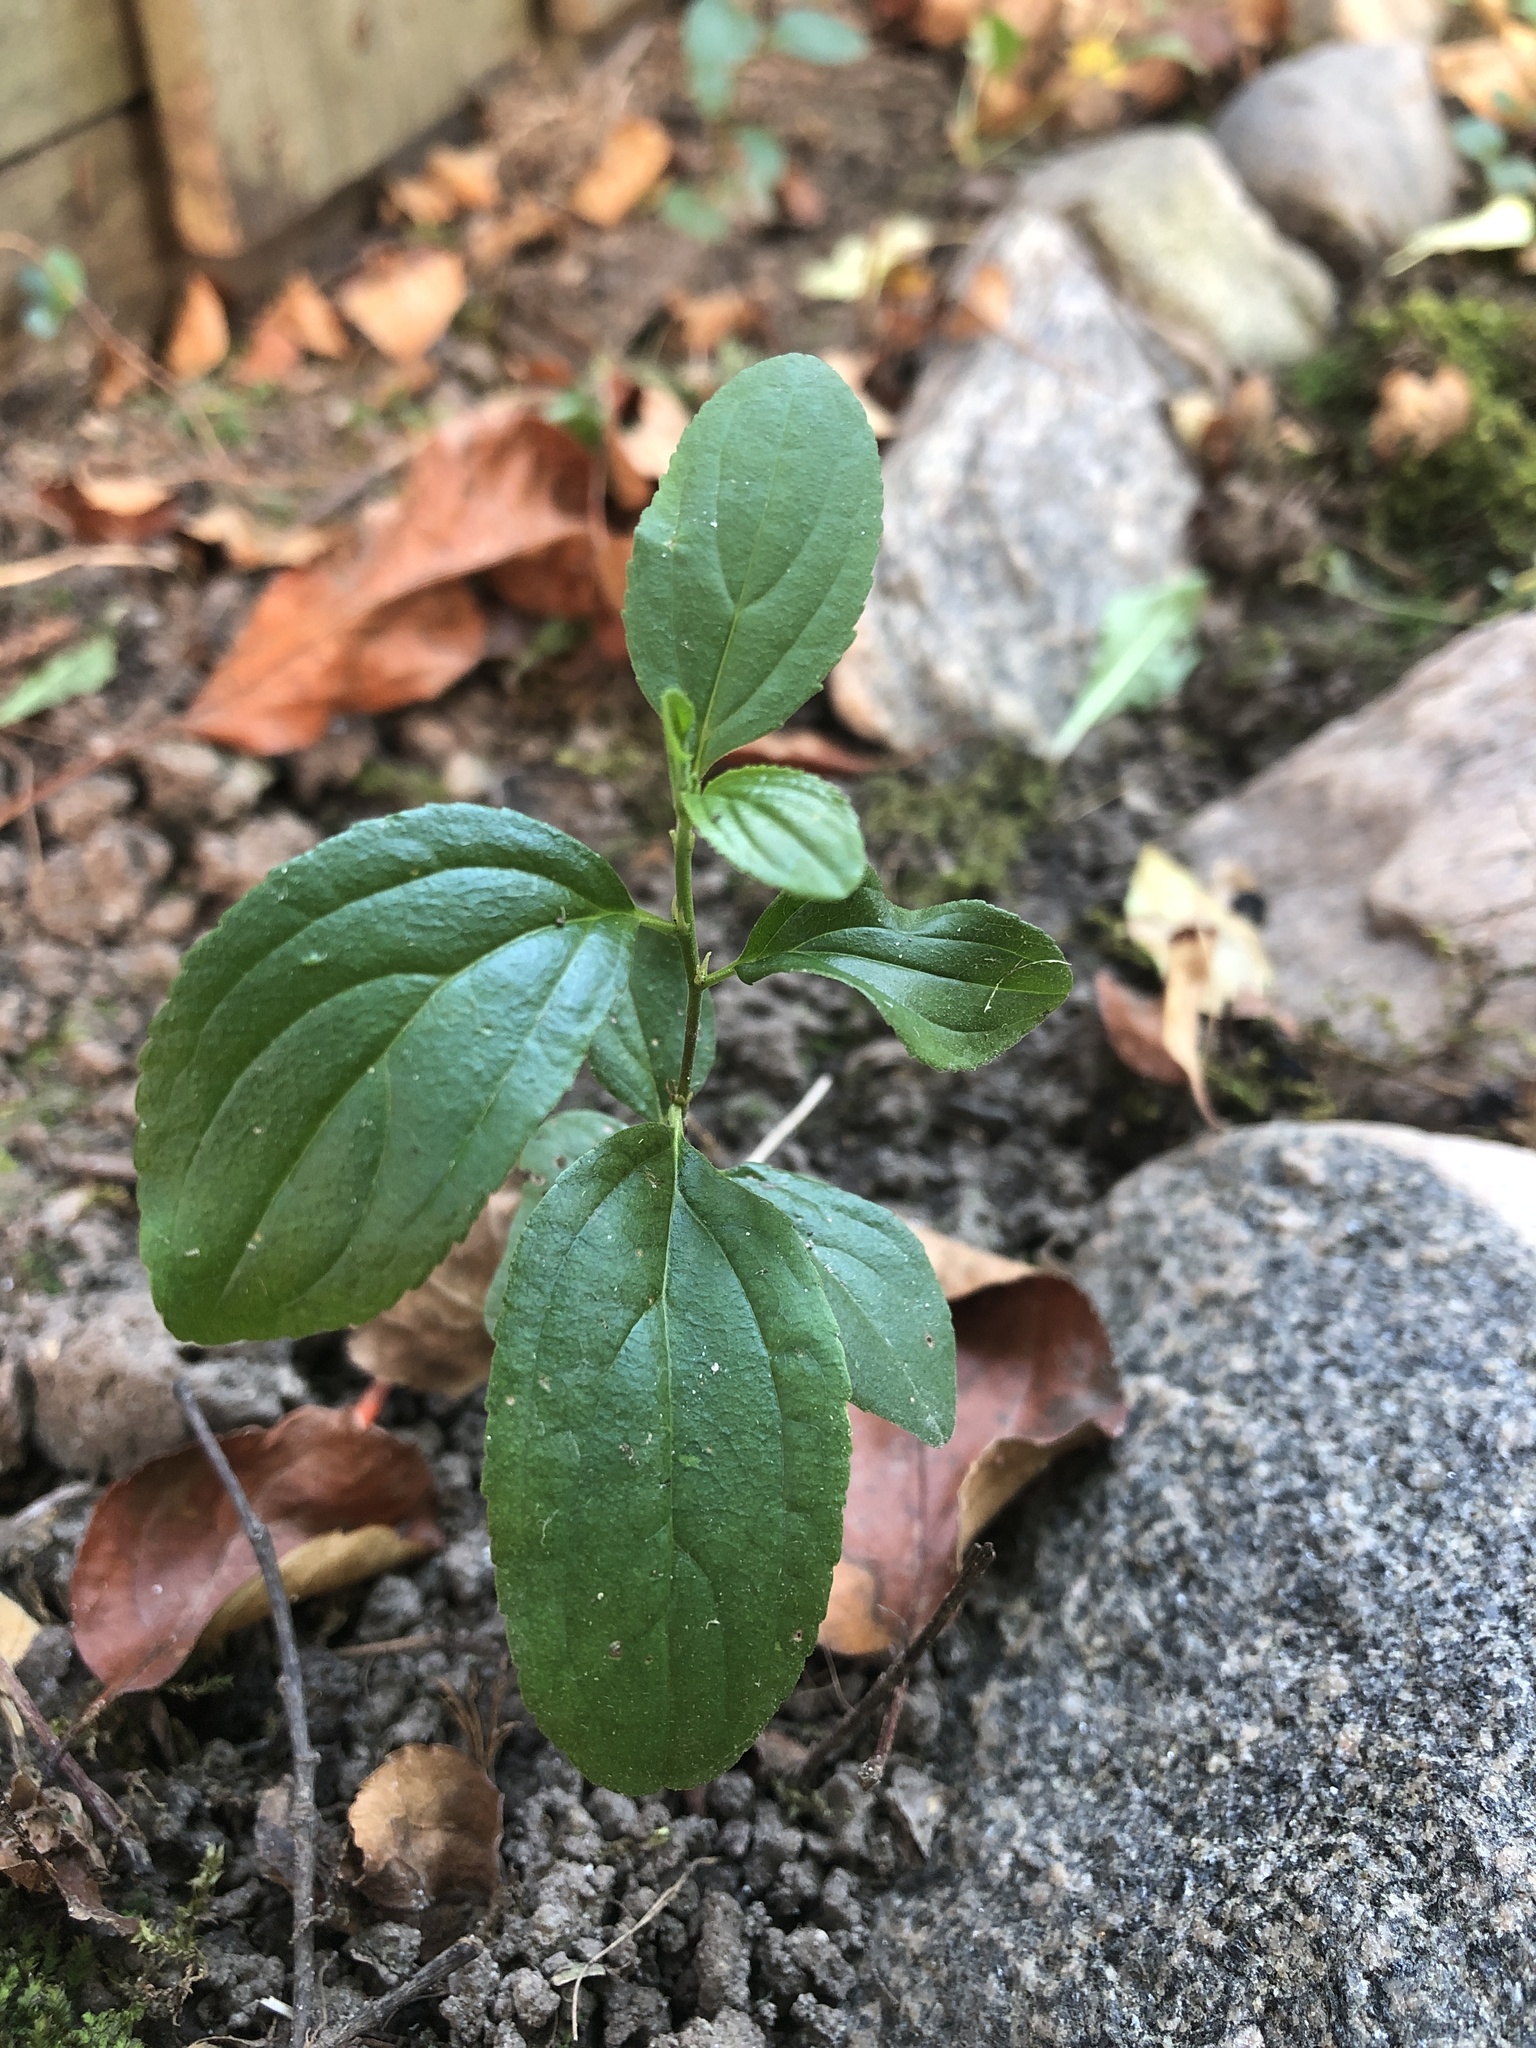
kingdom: Plantae
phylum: Tracheophyta
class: Magnoliopsida
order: Rosales
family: Rhamnaceae
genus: Rhamnus
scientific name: Rhamnus cathartica
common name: Common buckthorn
